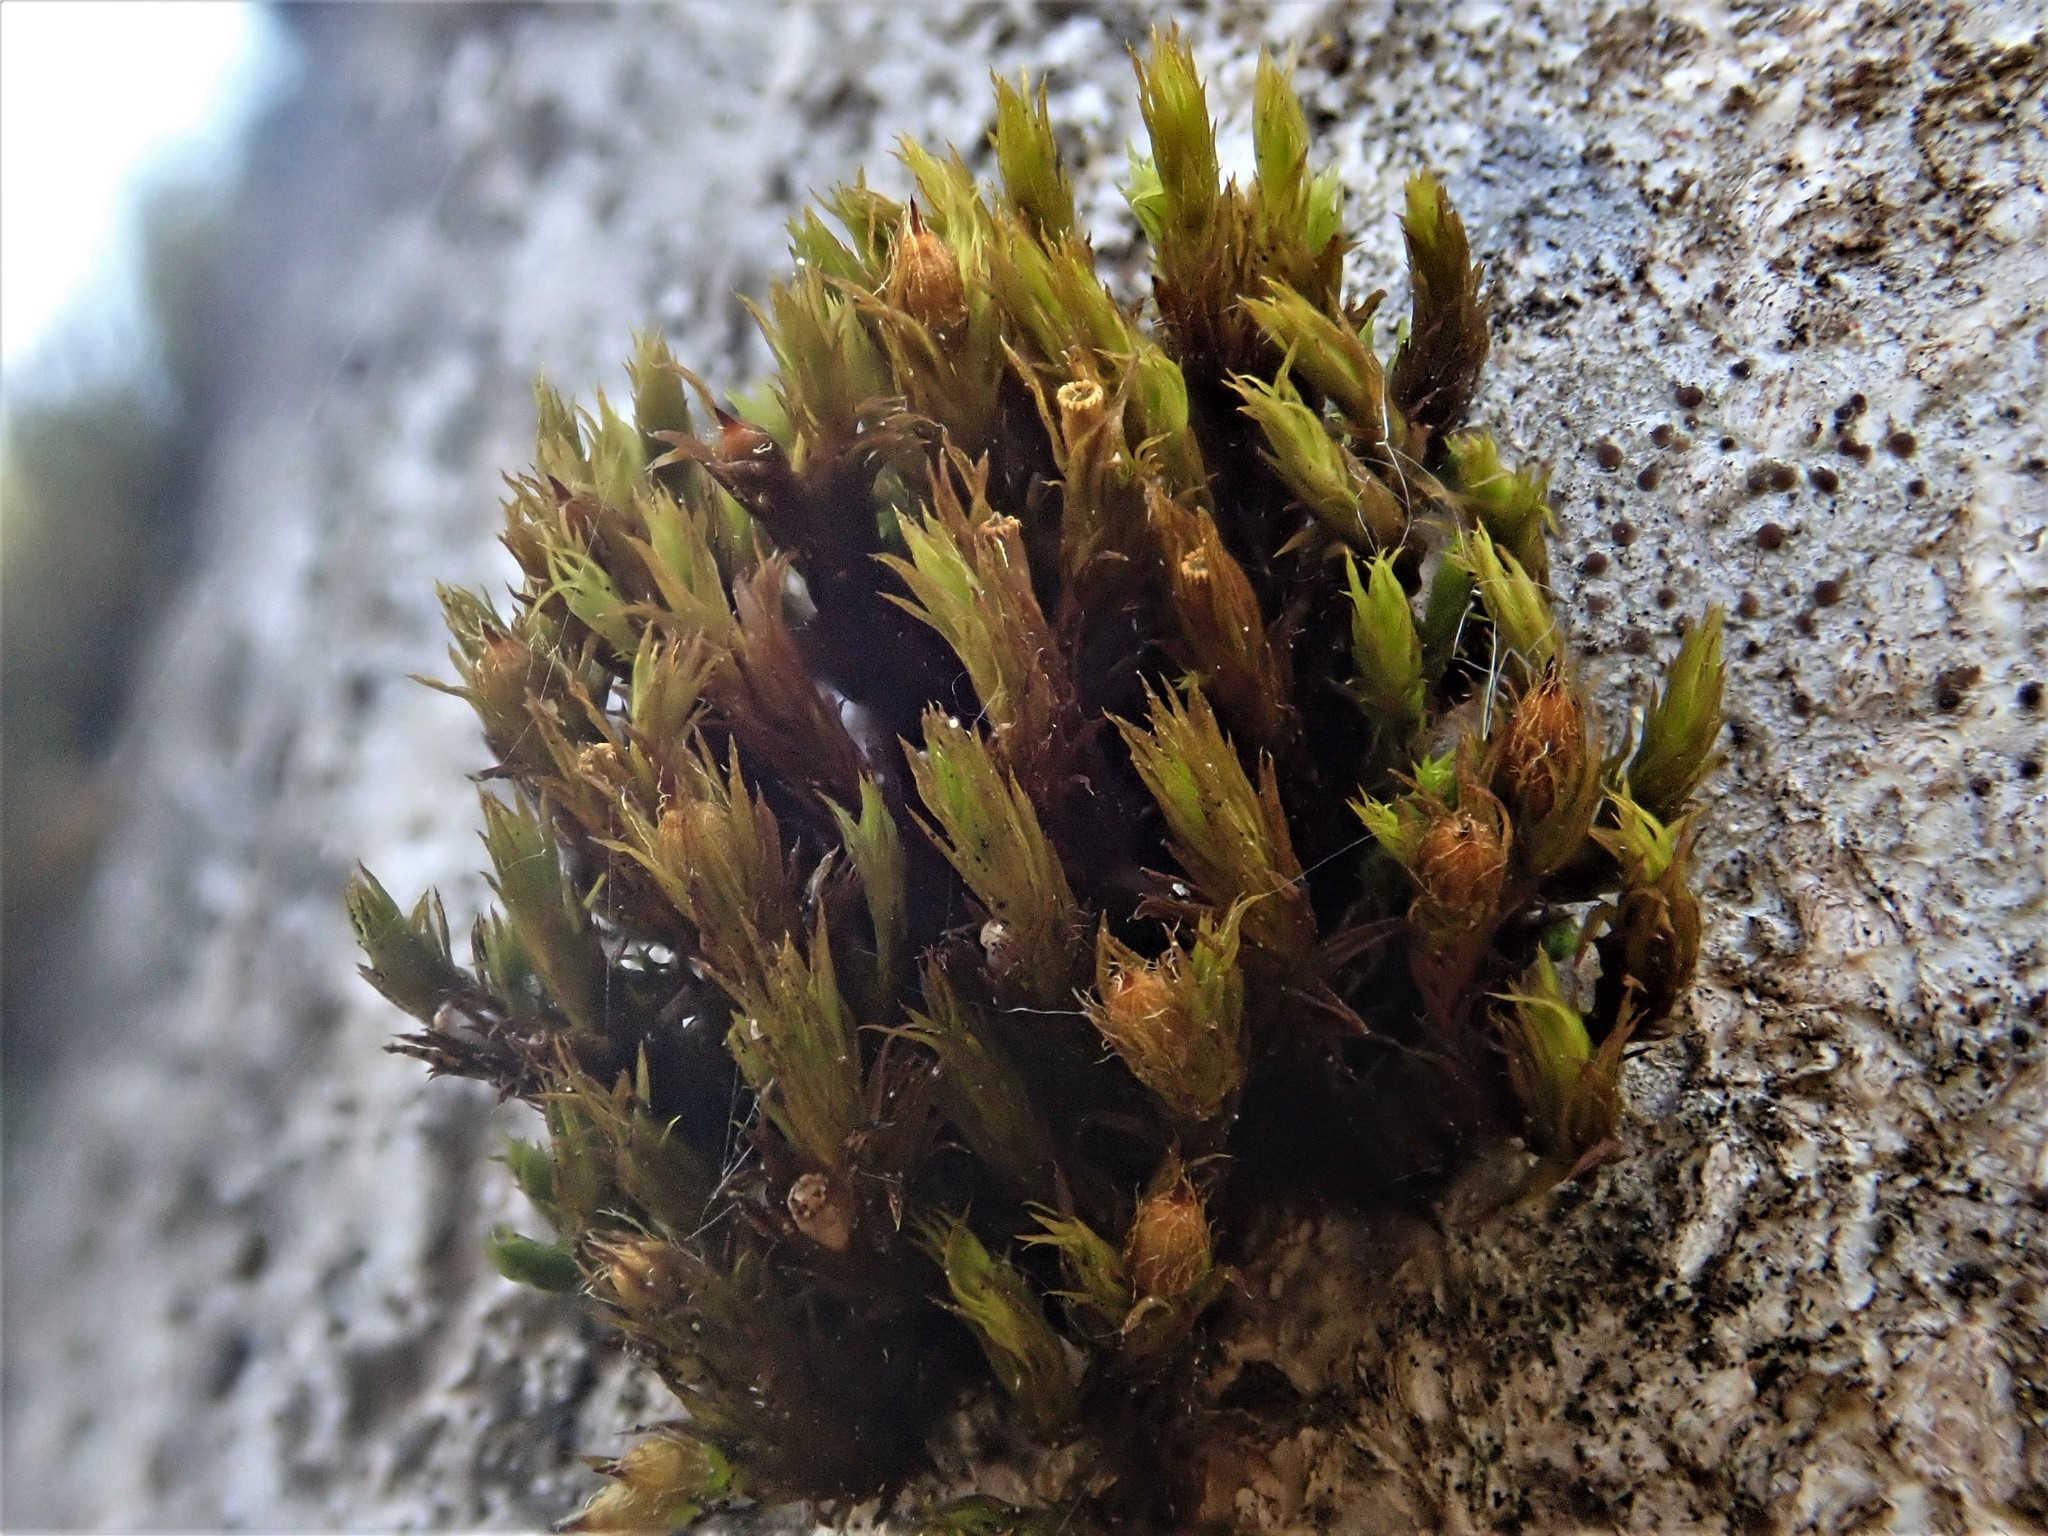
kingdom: Plantae
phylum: Bryophyta
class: Bryopsida
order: Orthotrichales
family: Orthotrichaceae
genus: Lewinskya
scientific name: Lewinskya striata
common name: Shaw's bristle-moss
